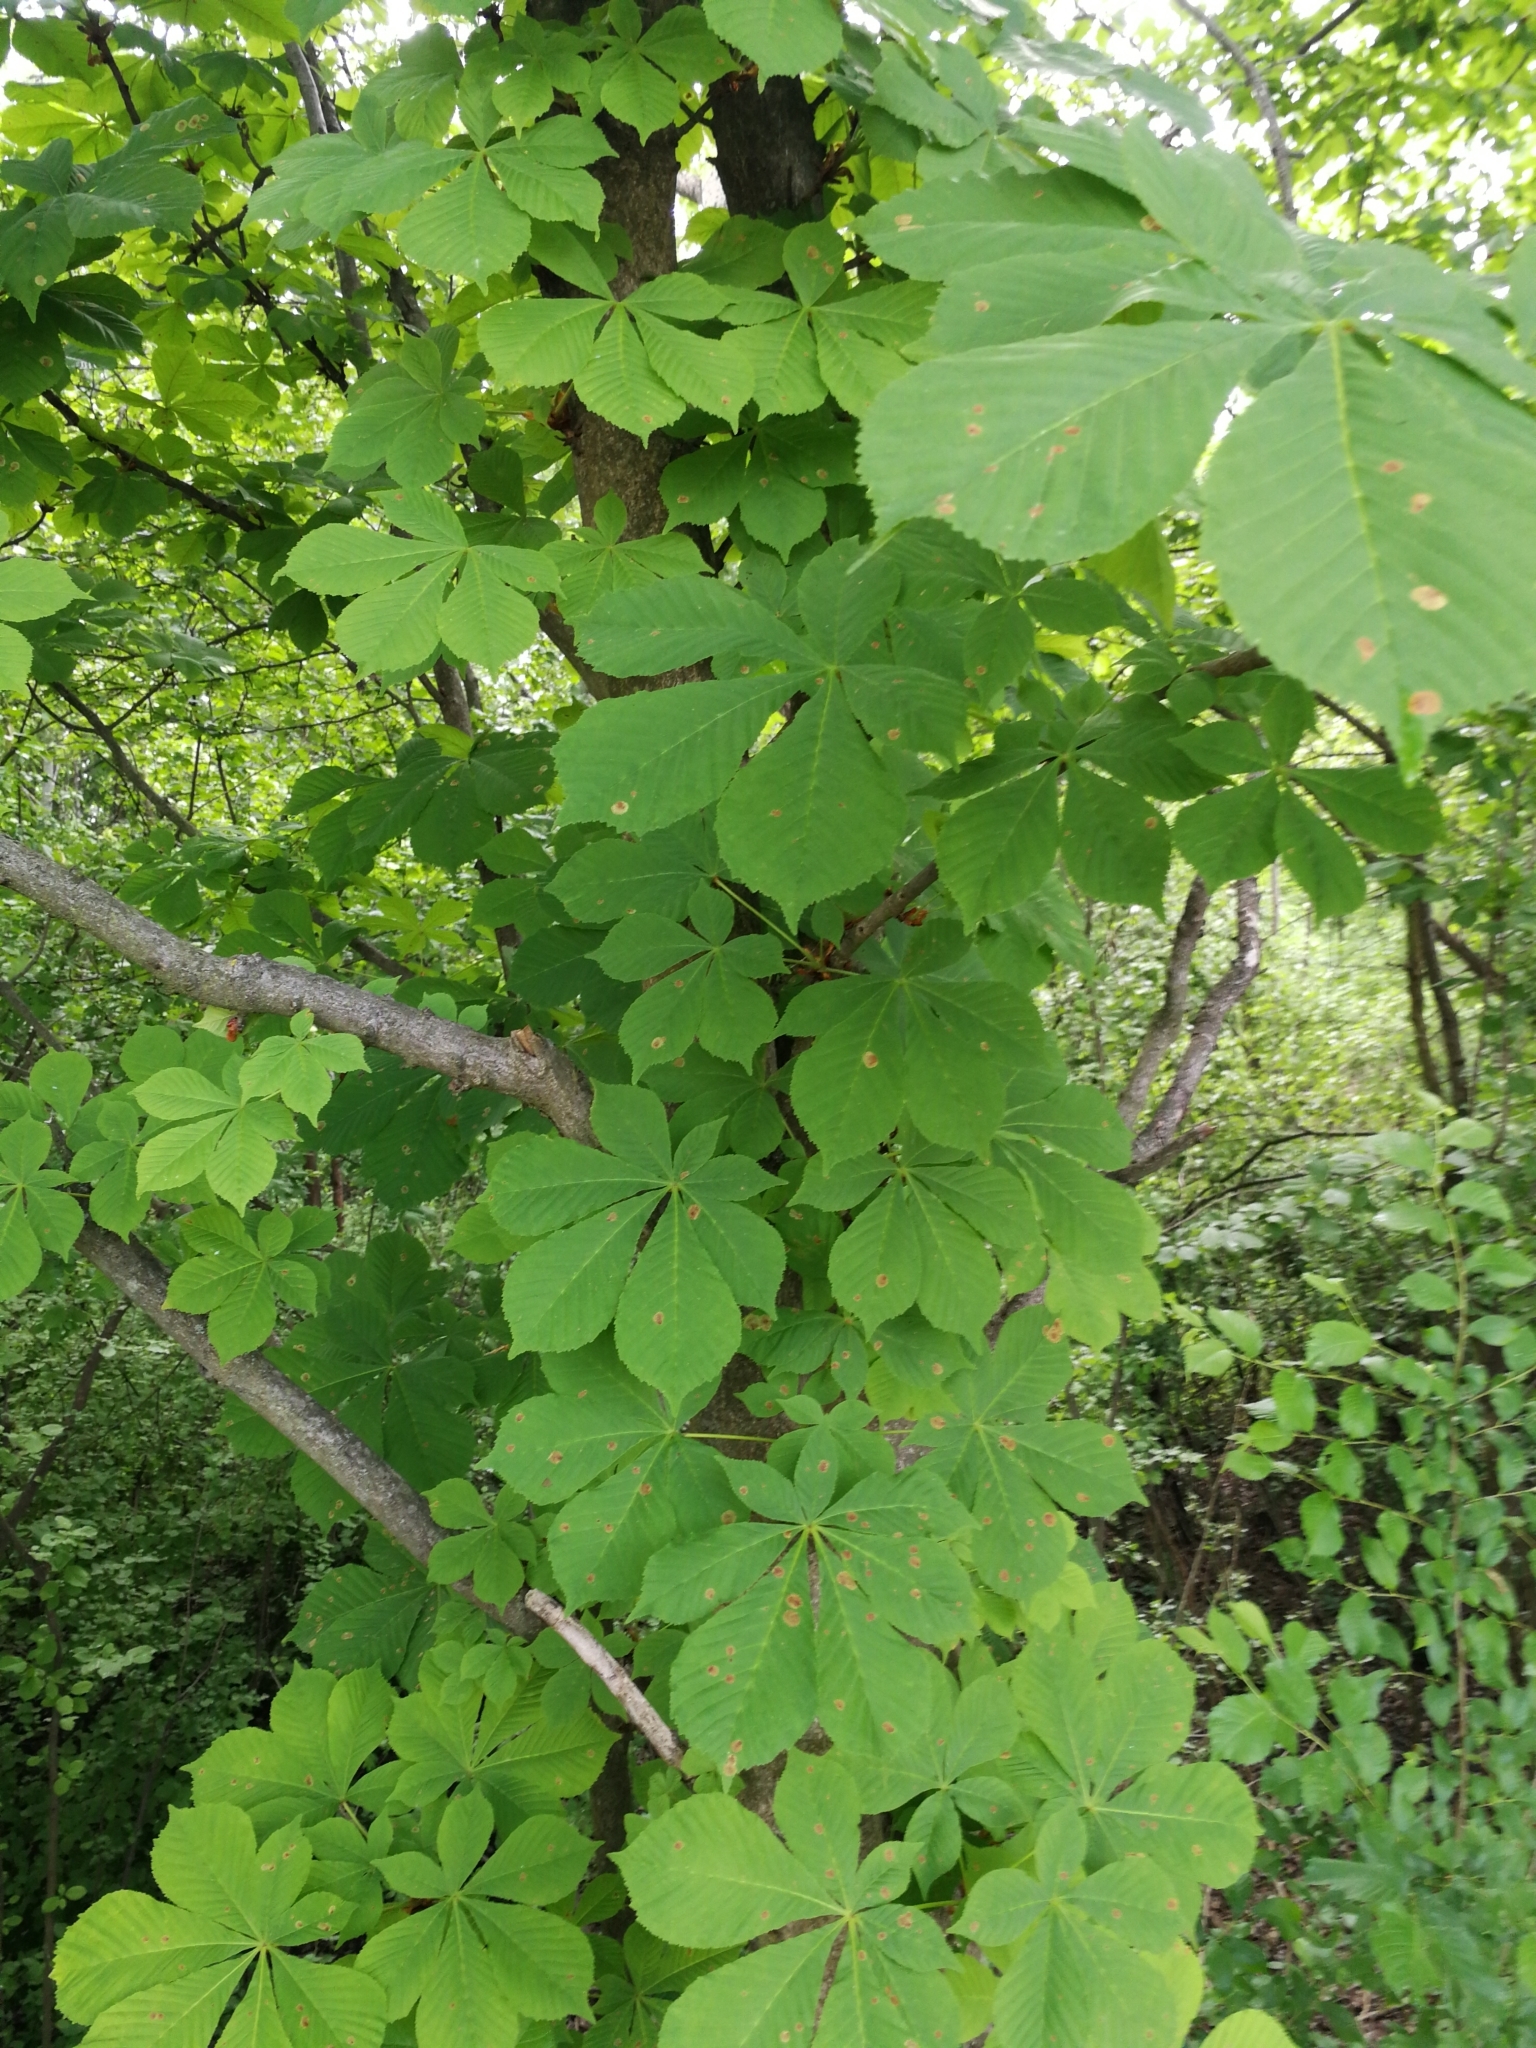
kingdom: Plantae
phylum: Tracheophyta
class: Magnoliopsida
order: Sapindales
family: Sapindaceae
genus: Aesculus
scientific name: Aesculus hippocastanum
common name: Horse-chestnut
